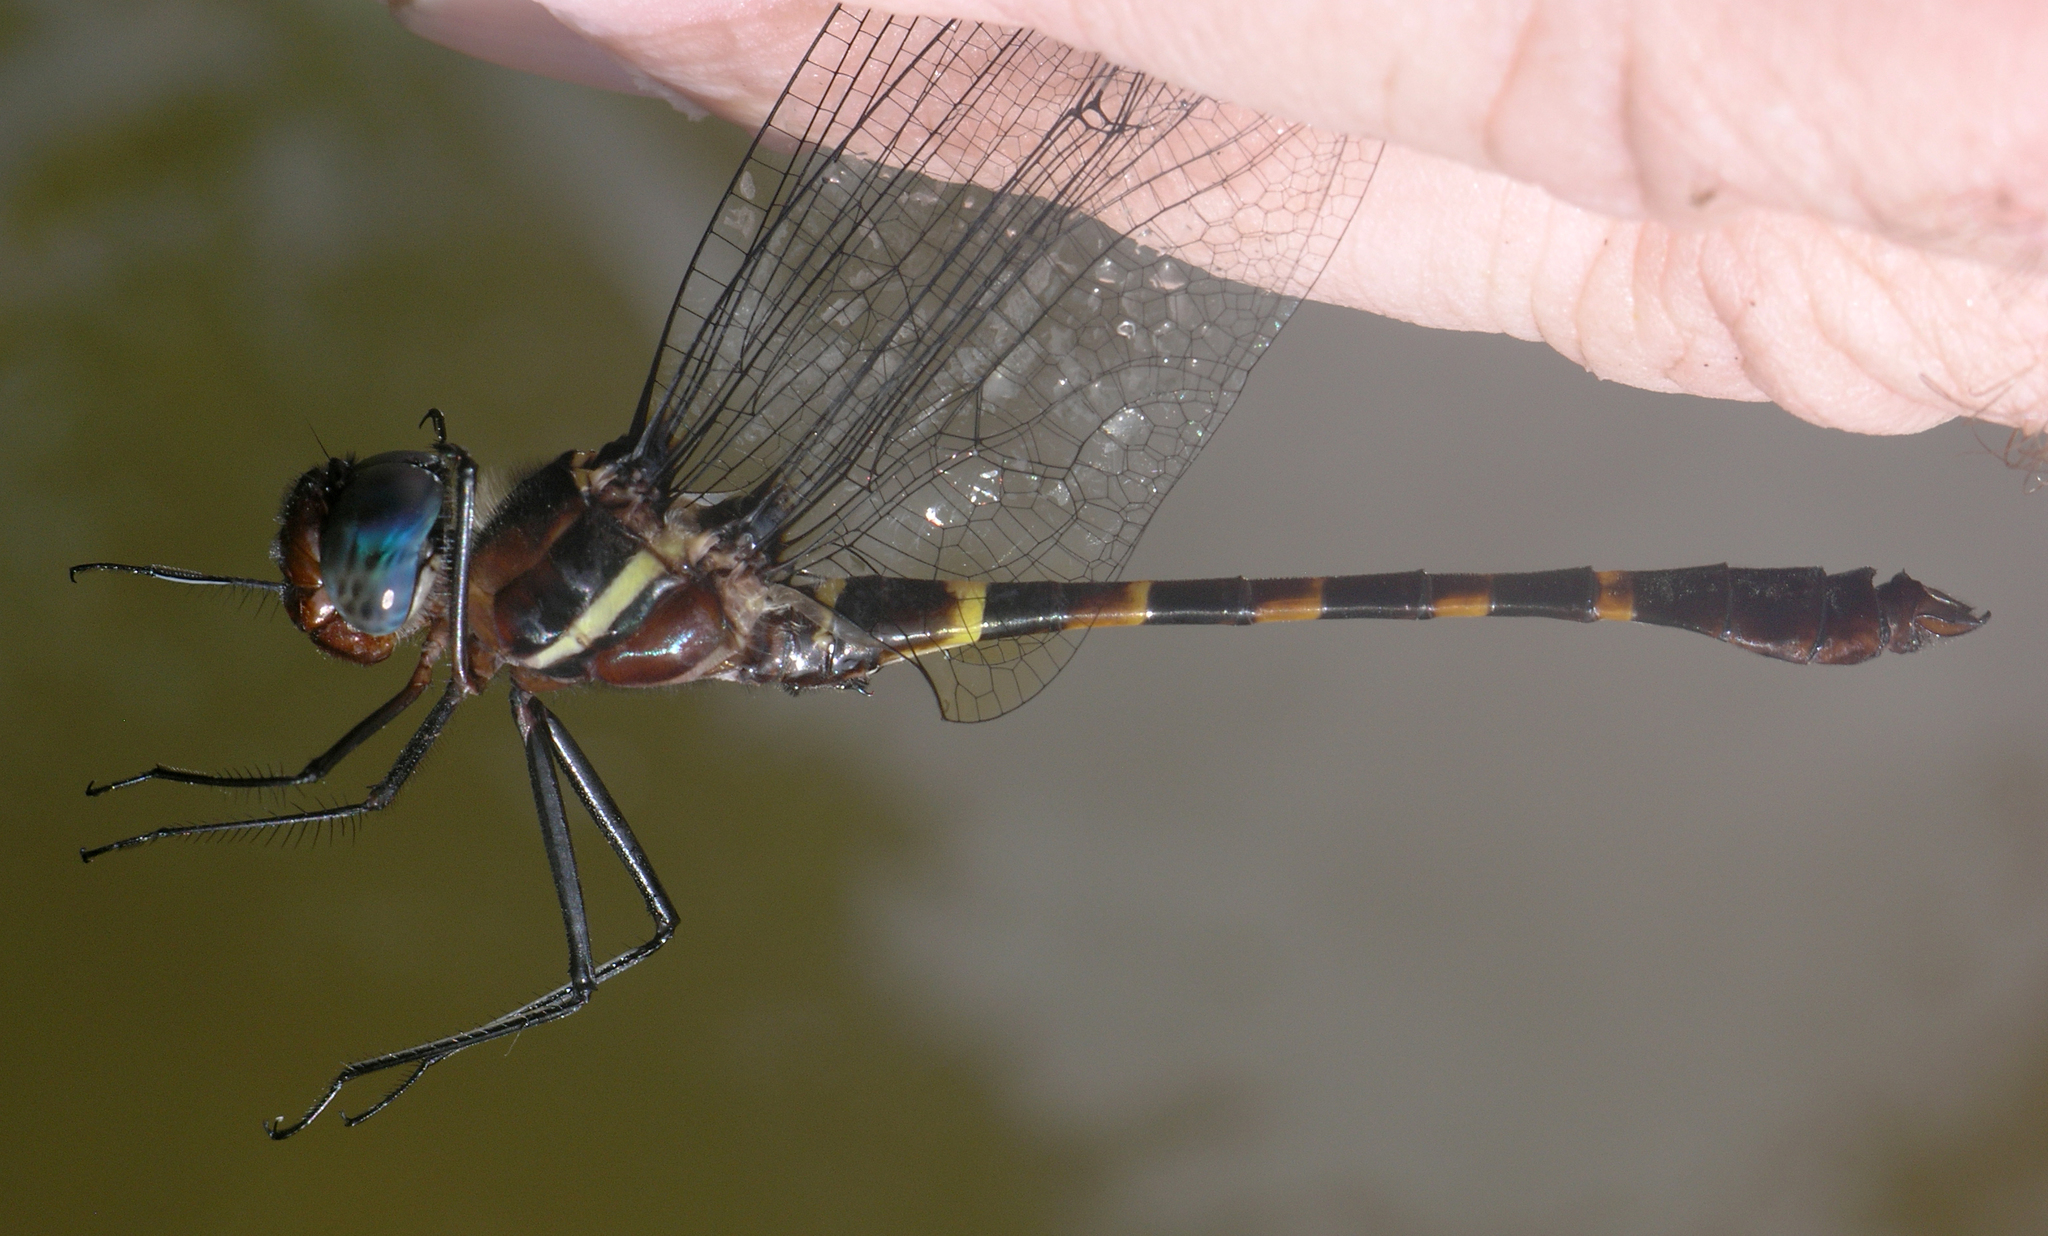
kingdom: Animalia
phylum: Arthropoda
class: Insecta
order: Odonata
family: Macromiidae
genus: Macromia
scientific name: Macromia cincta
